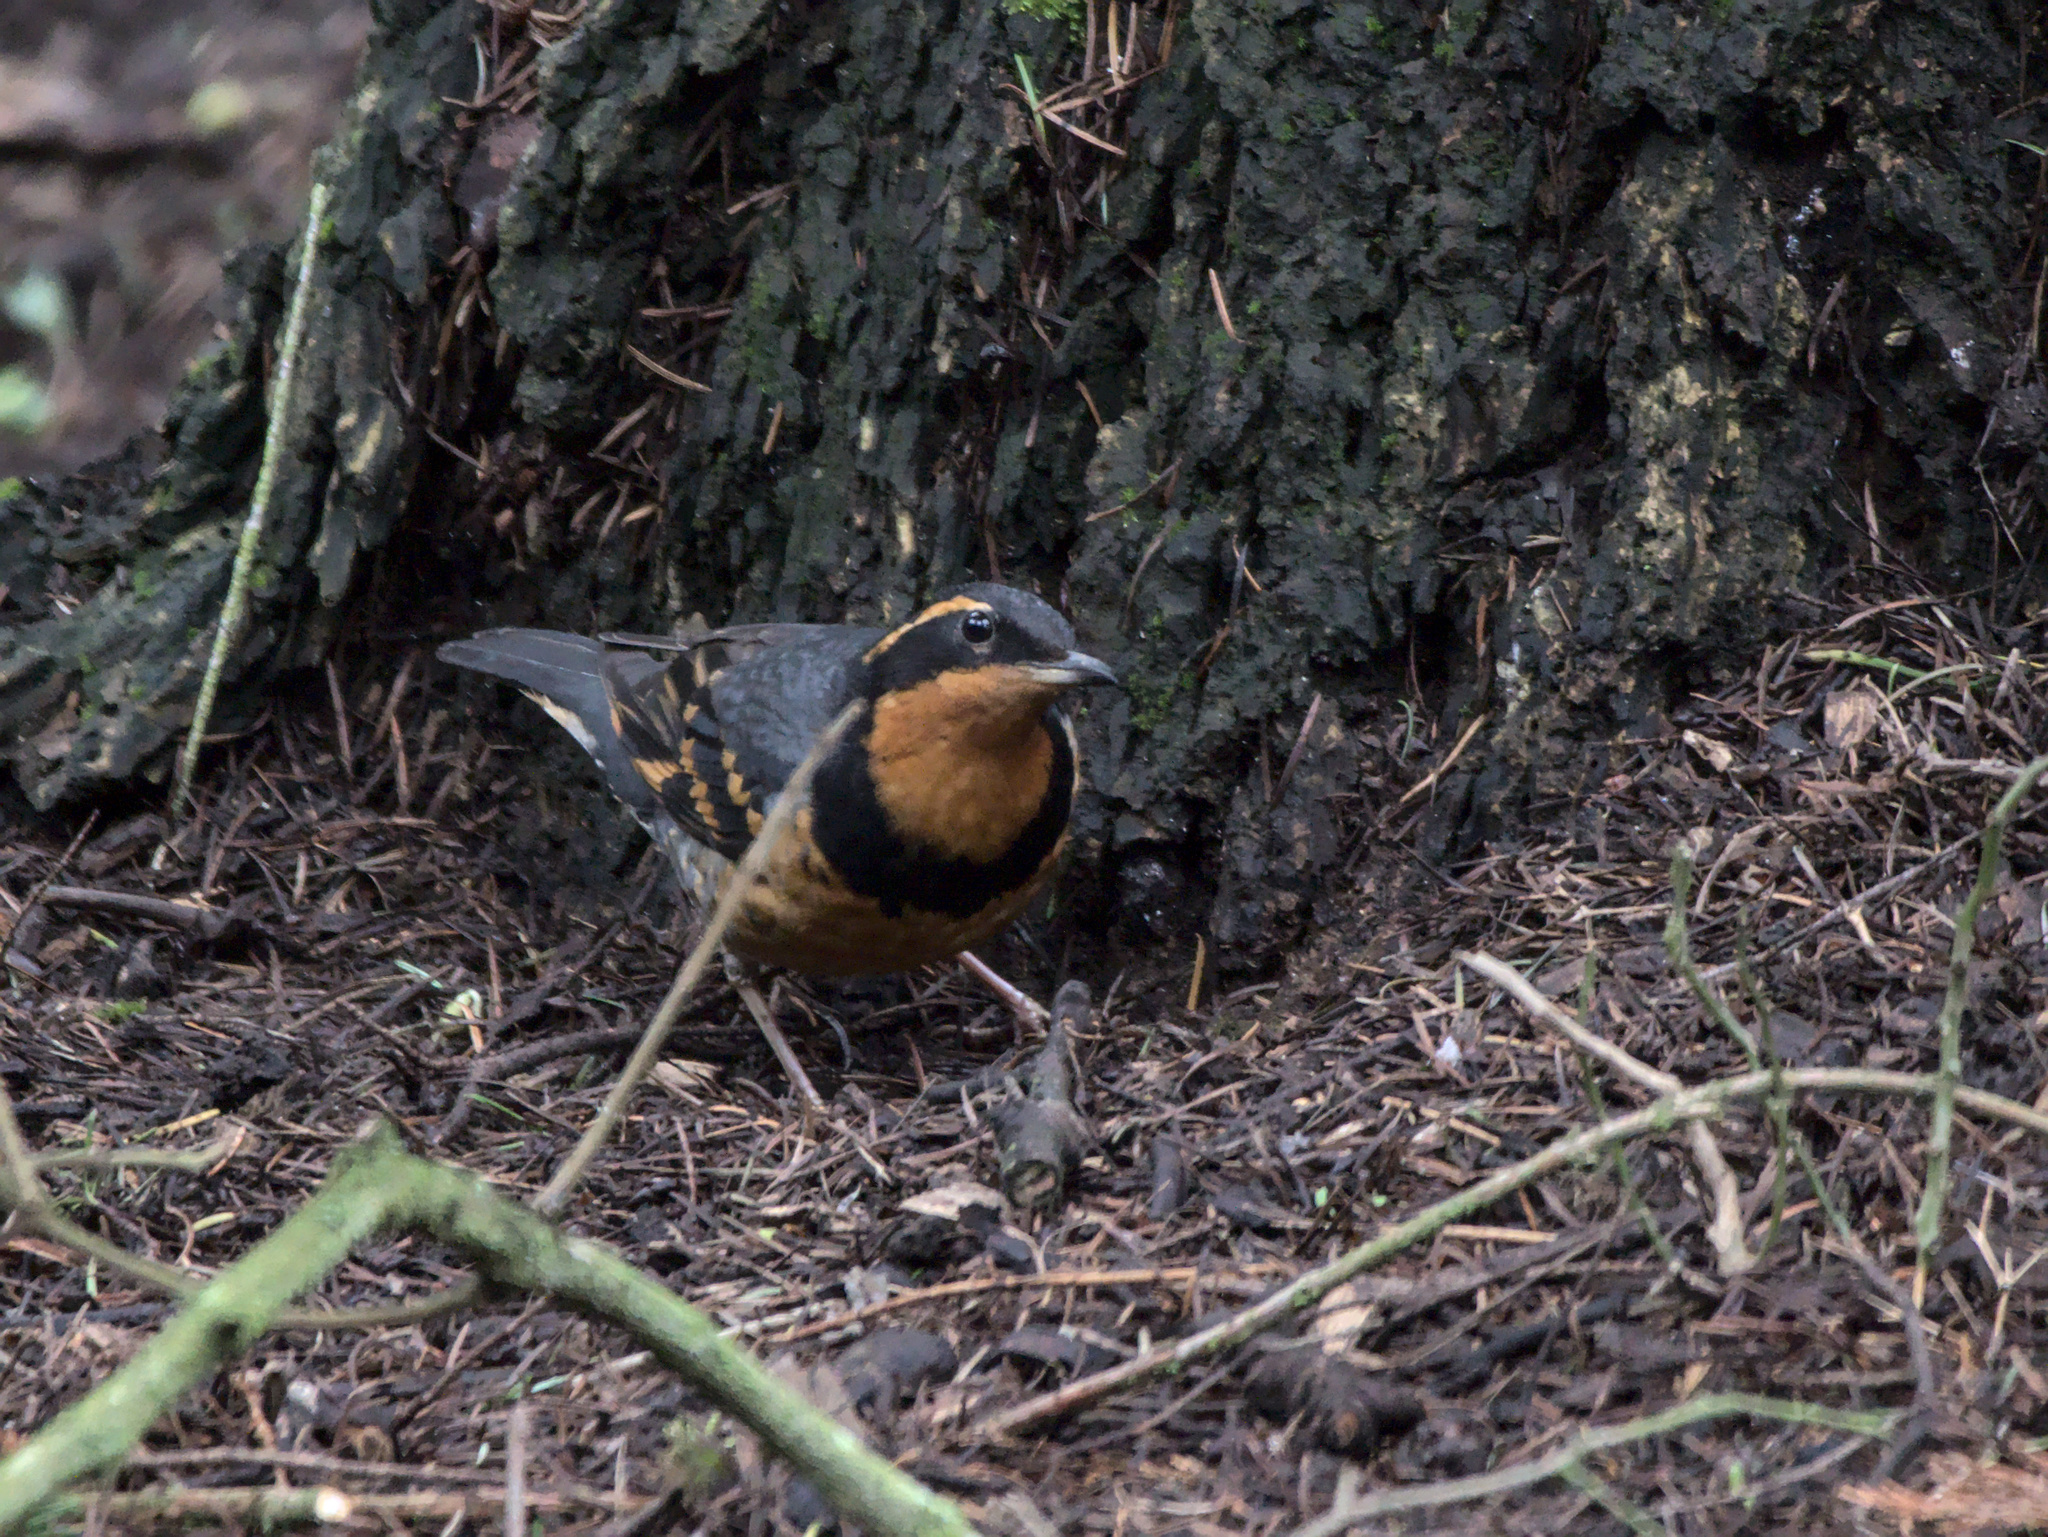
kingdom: Animalia
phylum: Chordata
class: Aves
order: Passeriformes
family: Turdidae
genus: Ixoreus
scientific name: Ixoreus naevius
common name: Varied thrush
